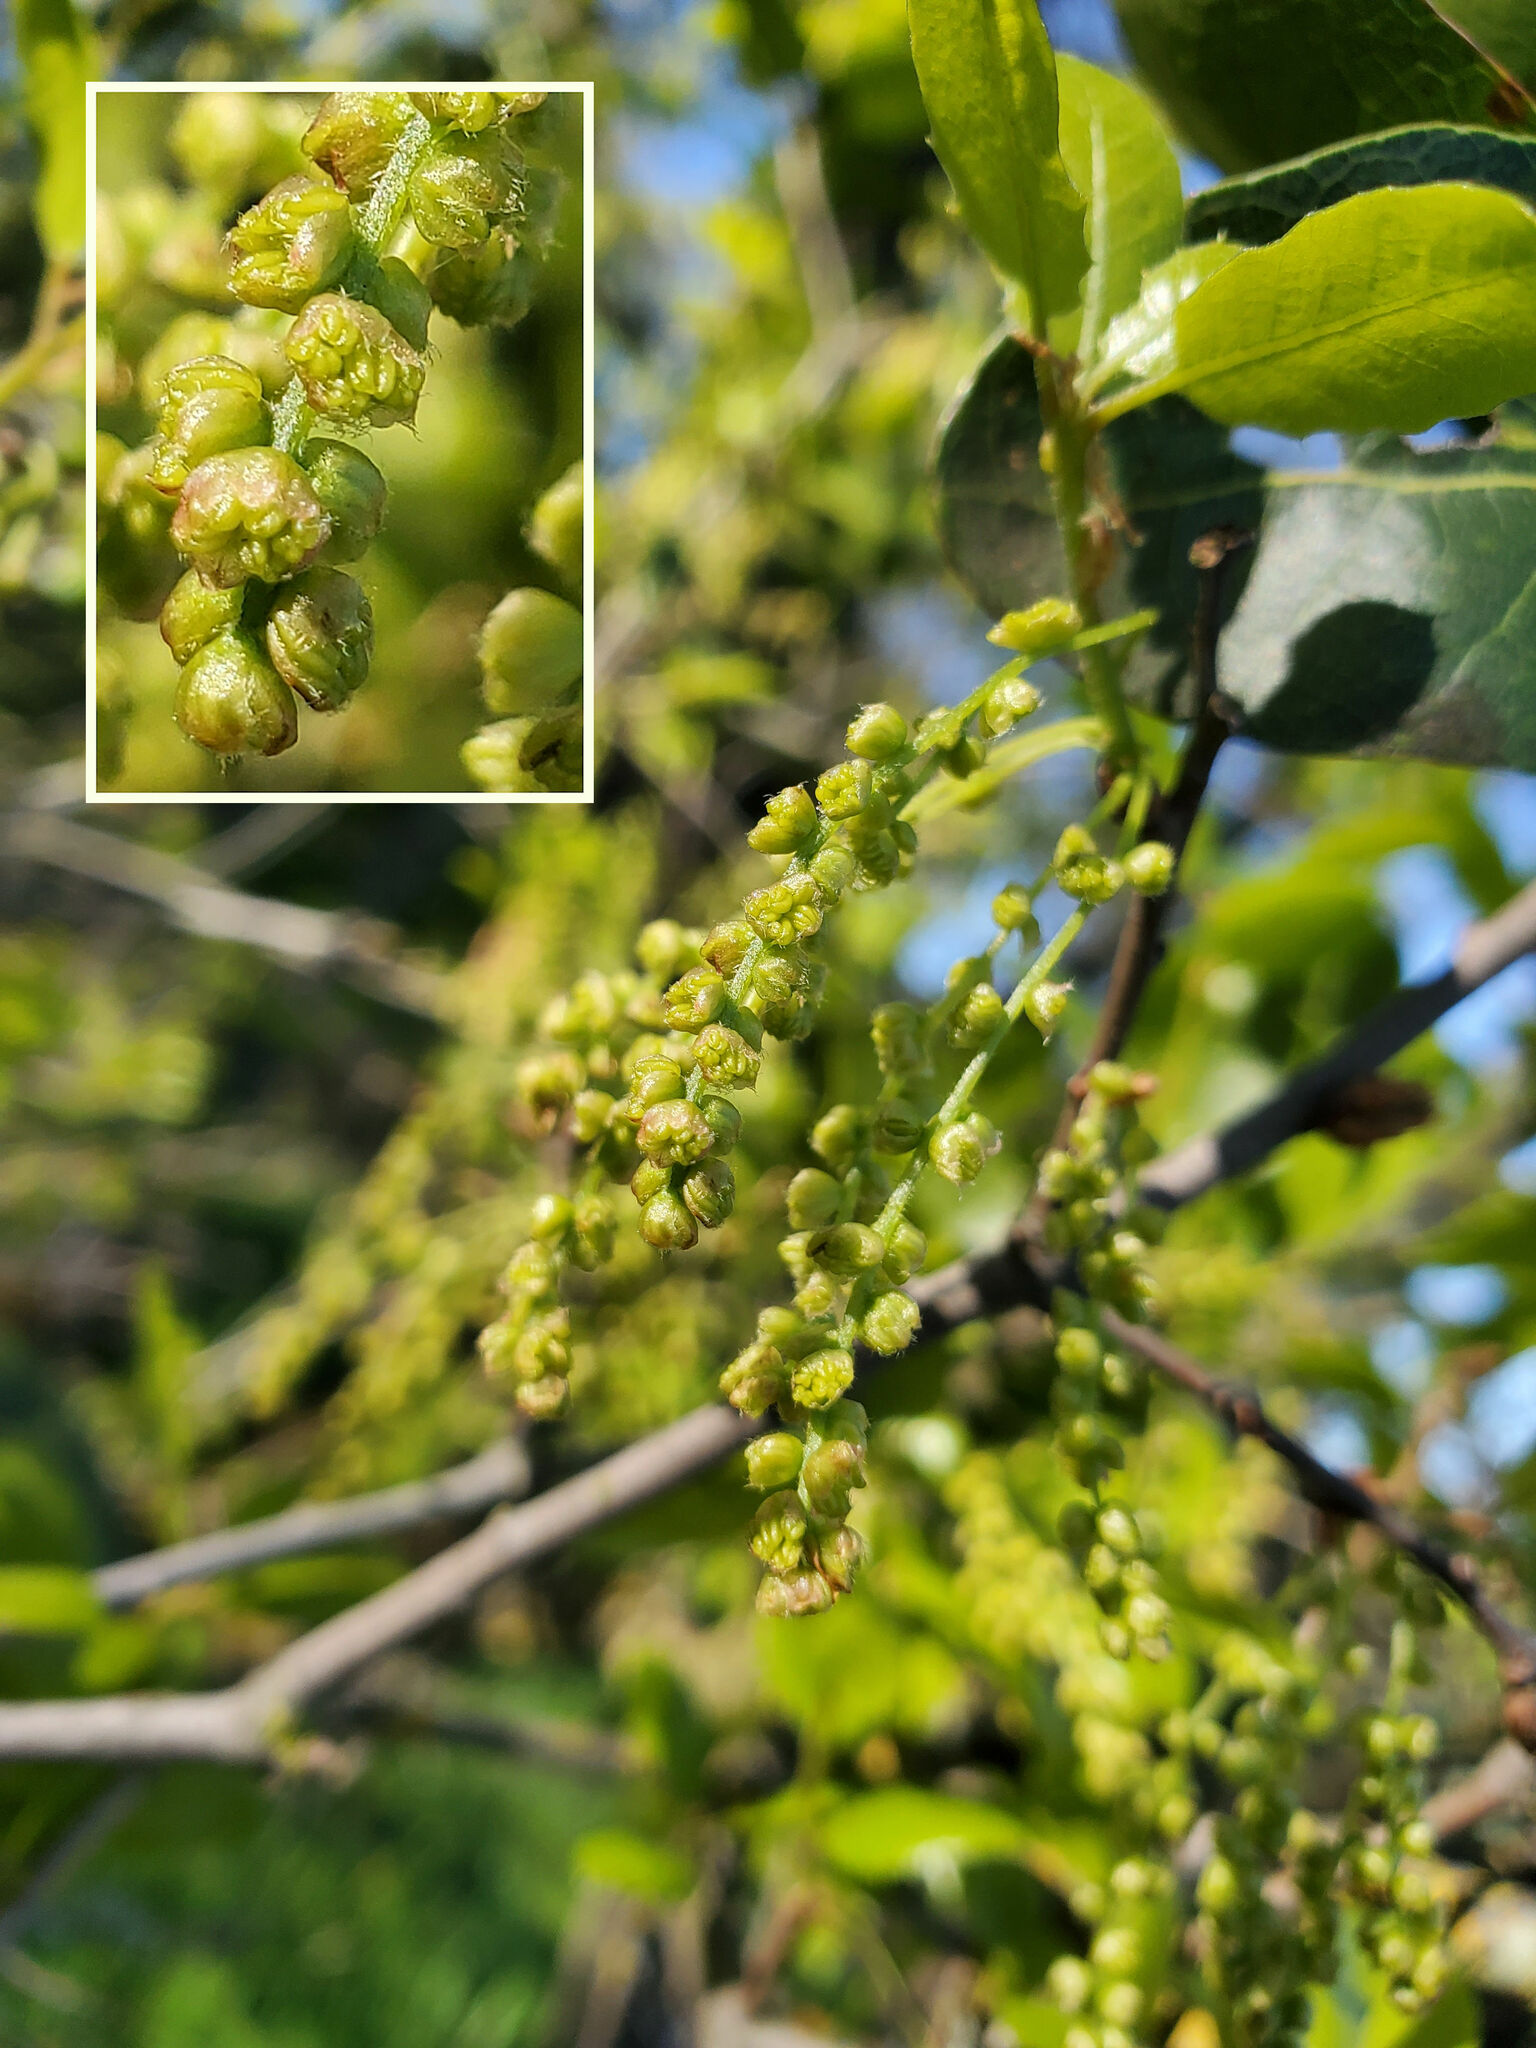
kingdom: Plantae
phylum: Tracheophyta
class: Magnoliopsida
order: Fagales
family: Fagaceae
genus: Quercus
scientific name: Quercus wislizeni
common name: Interior live oak
